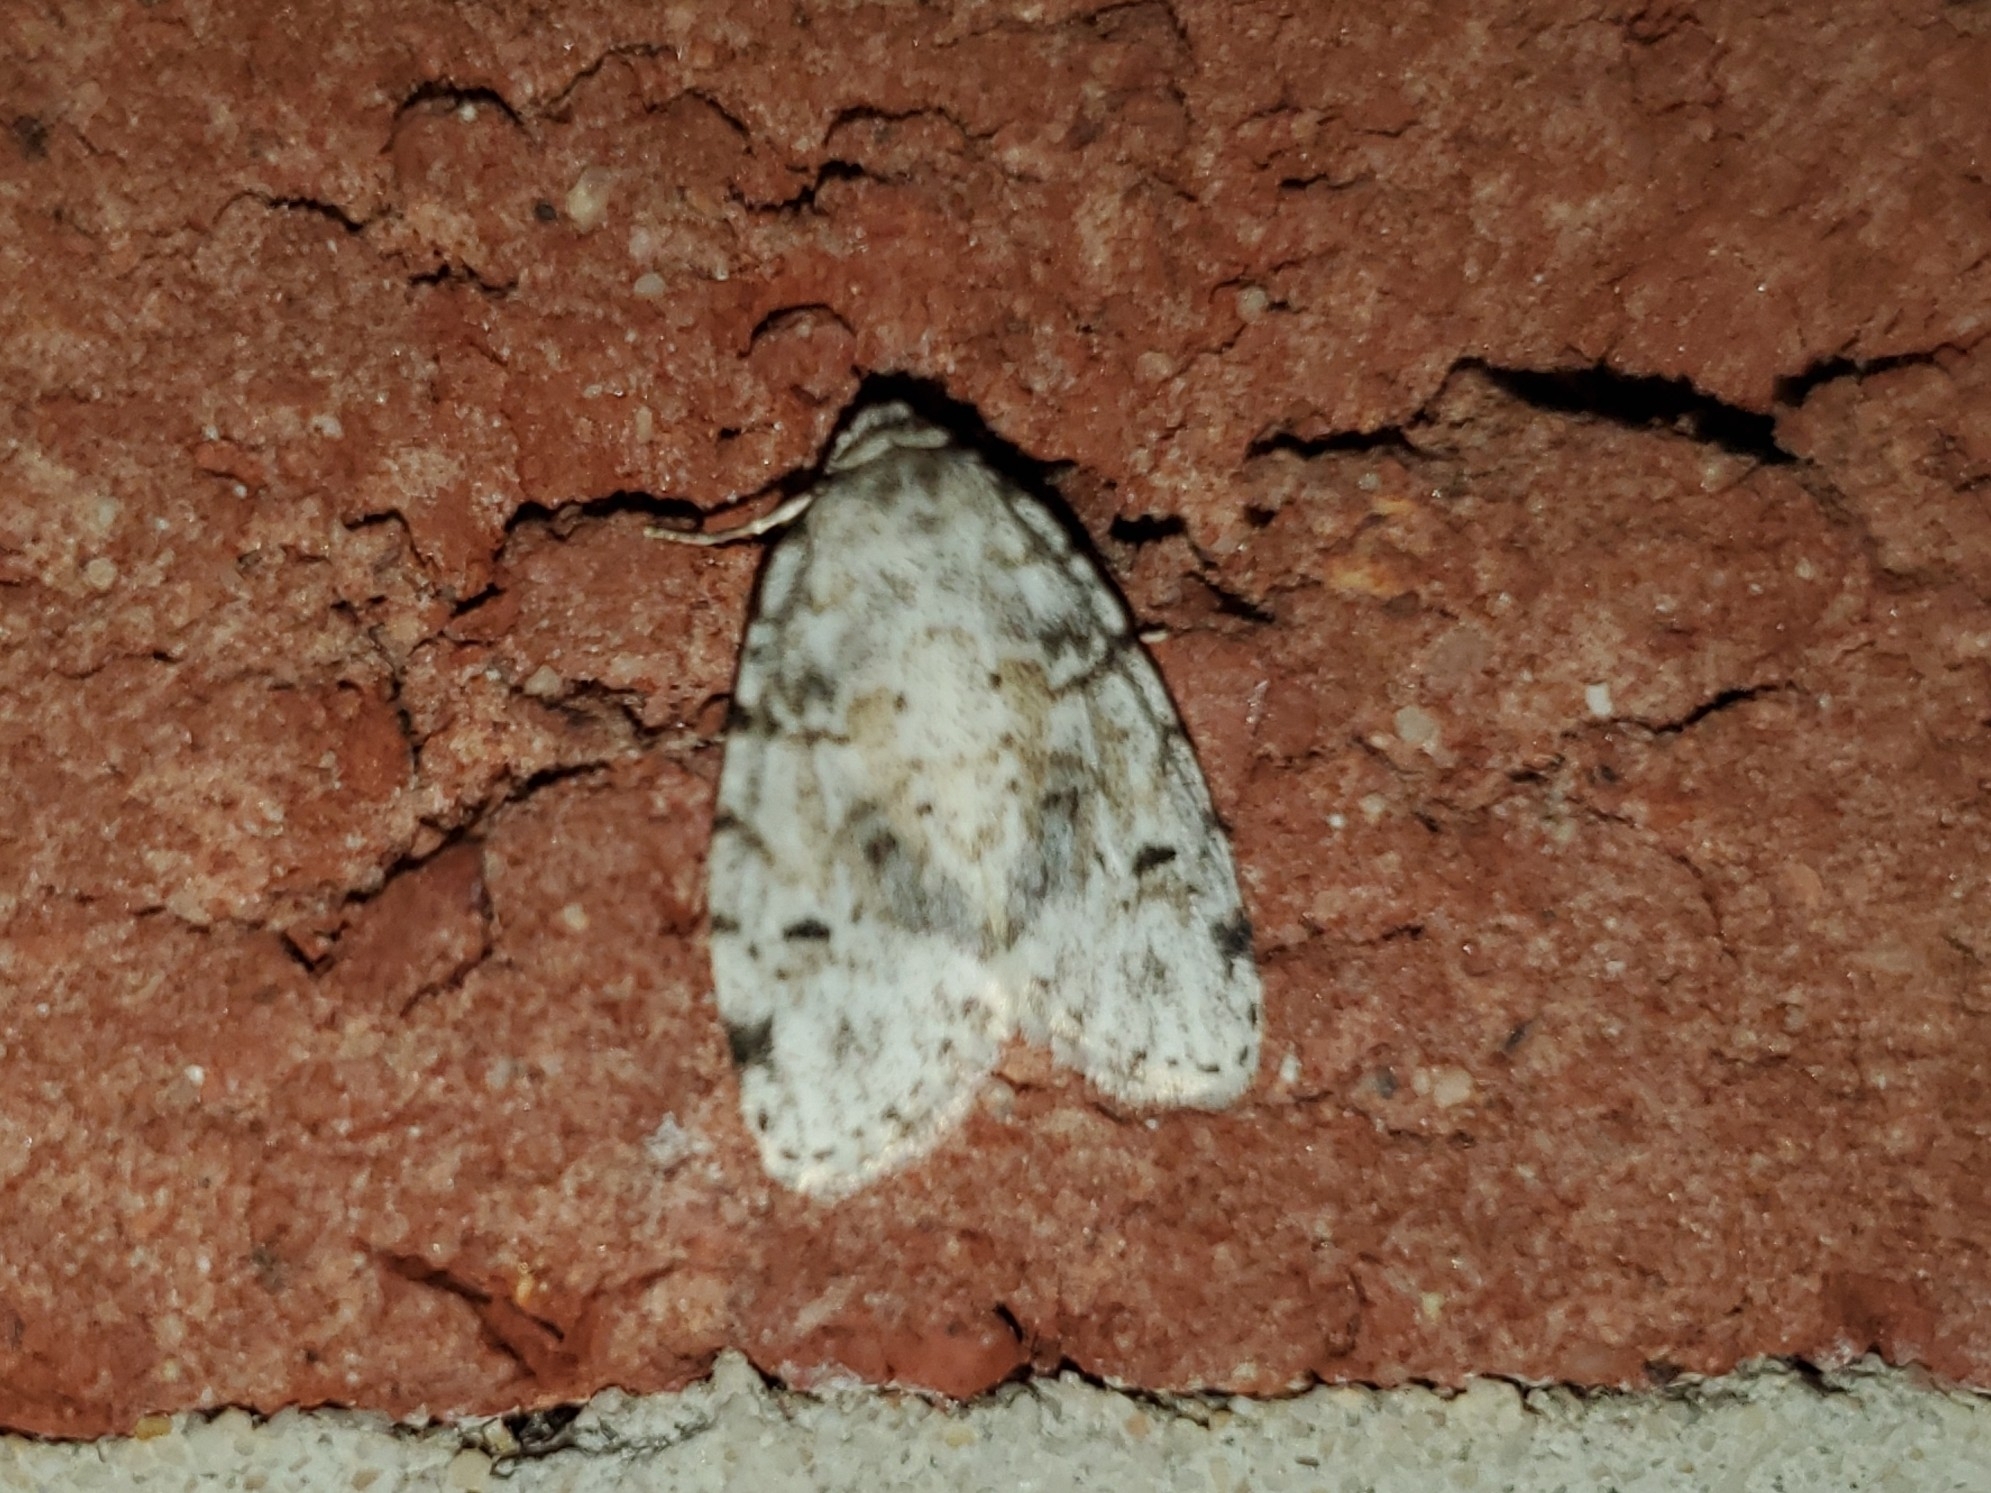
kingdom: Animalia
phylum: Arthropoda
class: Insecta
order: Lepidoptera
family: Erebidae
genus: Clemensia
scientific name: Clemensia albata
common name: Little white lichen moth
